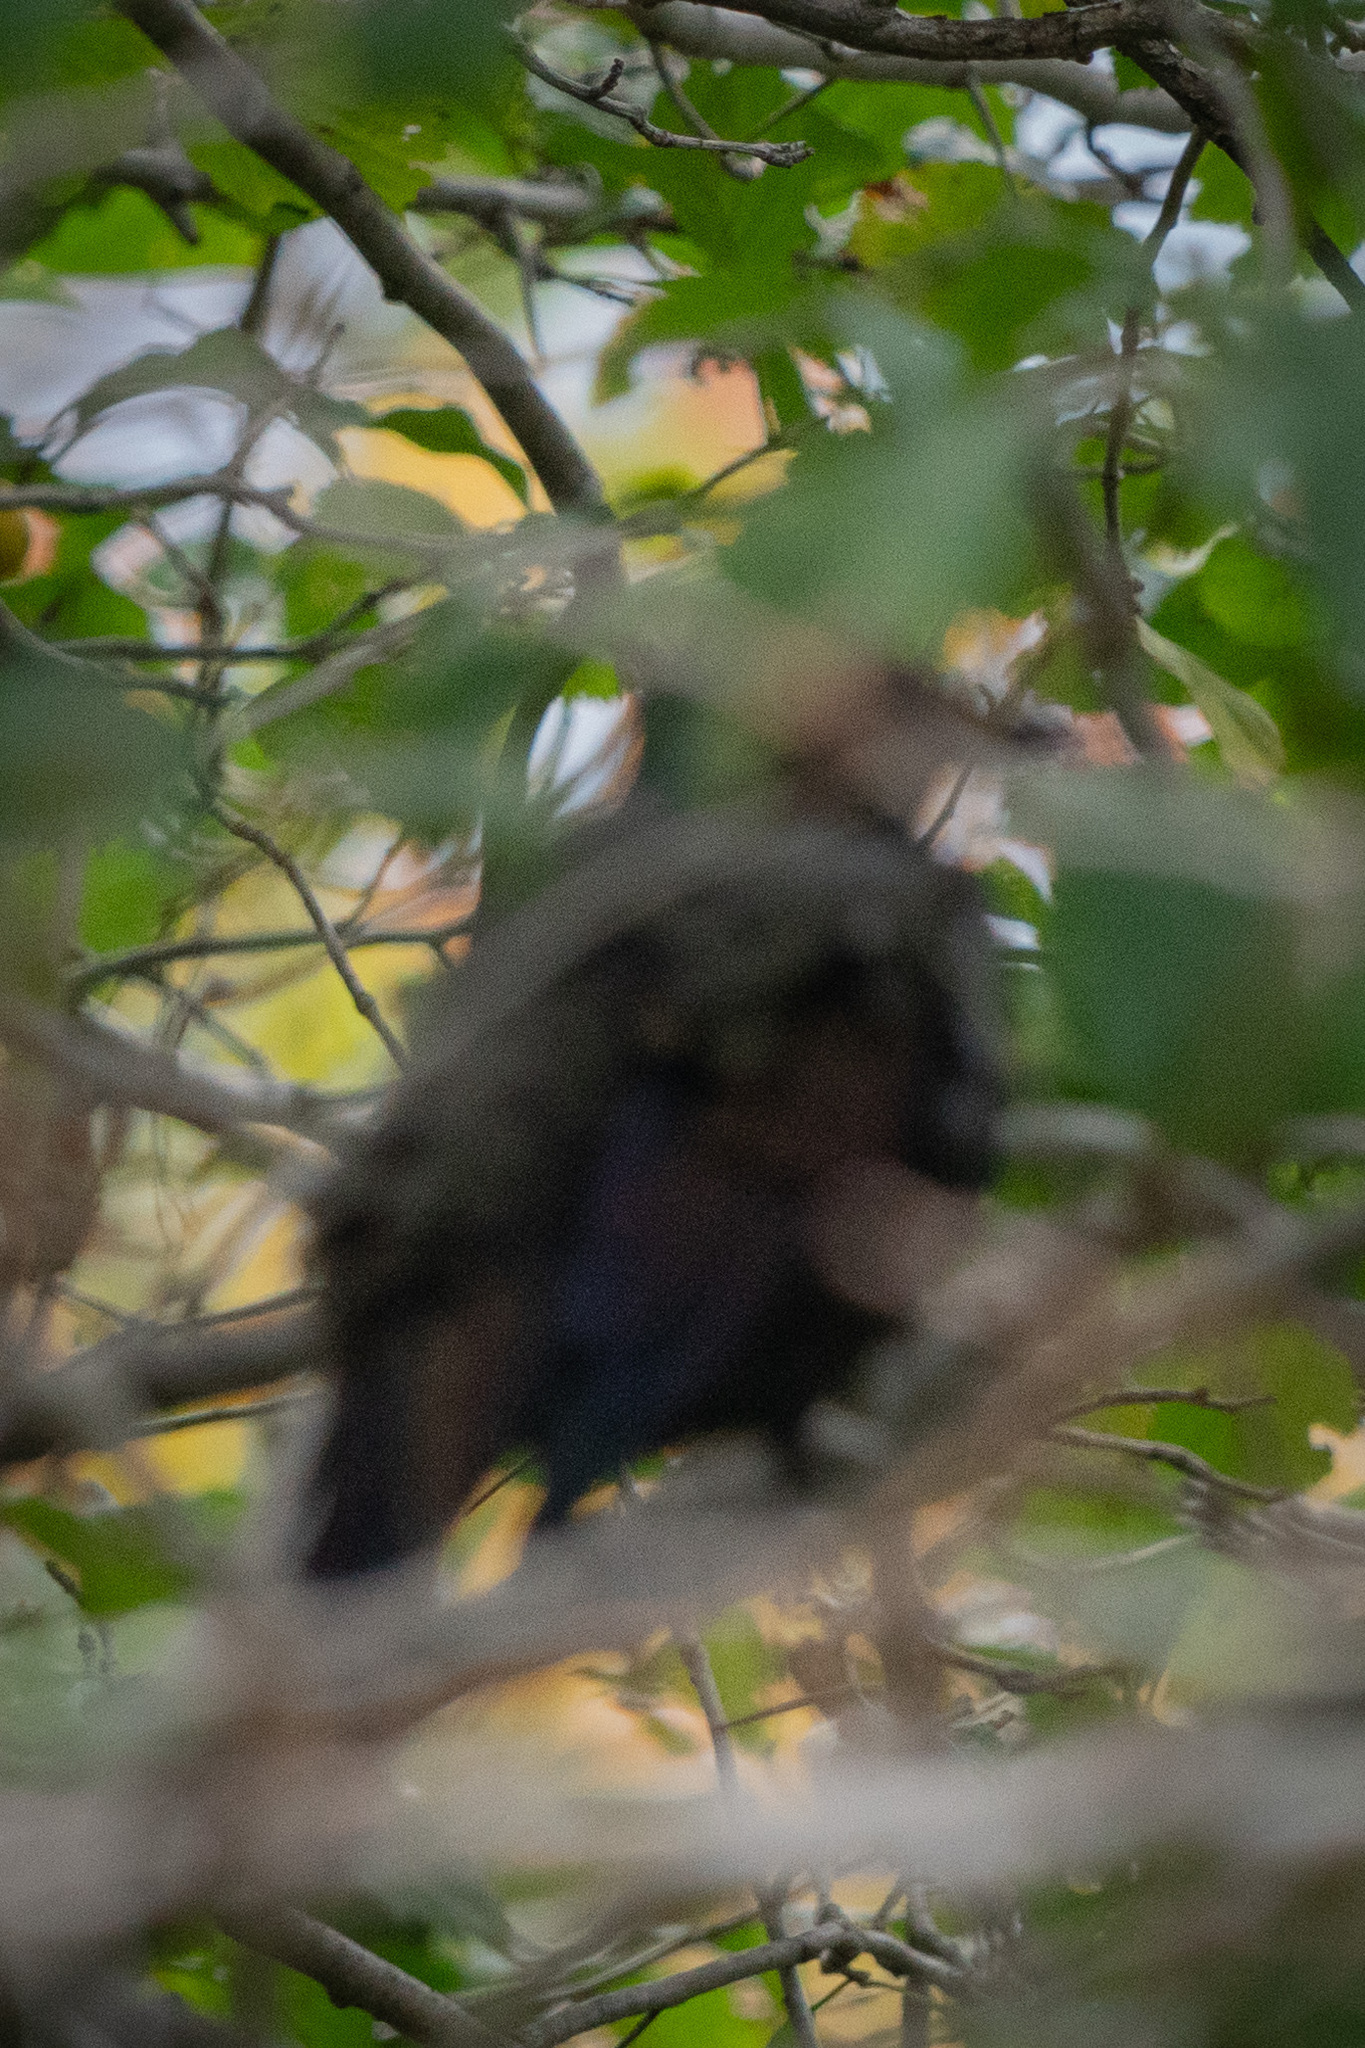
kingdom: Animalia
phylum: Chordata
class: Aves
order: Passeriformes
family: Icteridae
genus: Quiscalus
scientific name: Quiscalus quiscula
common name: Common grackle
